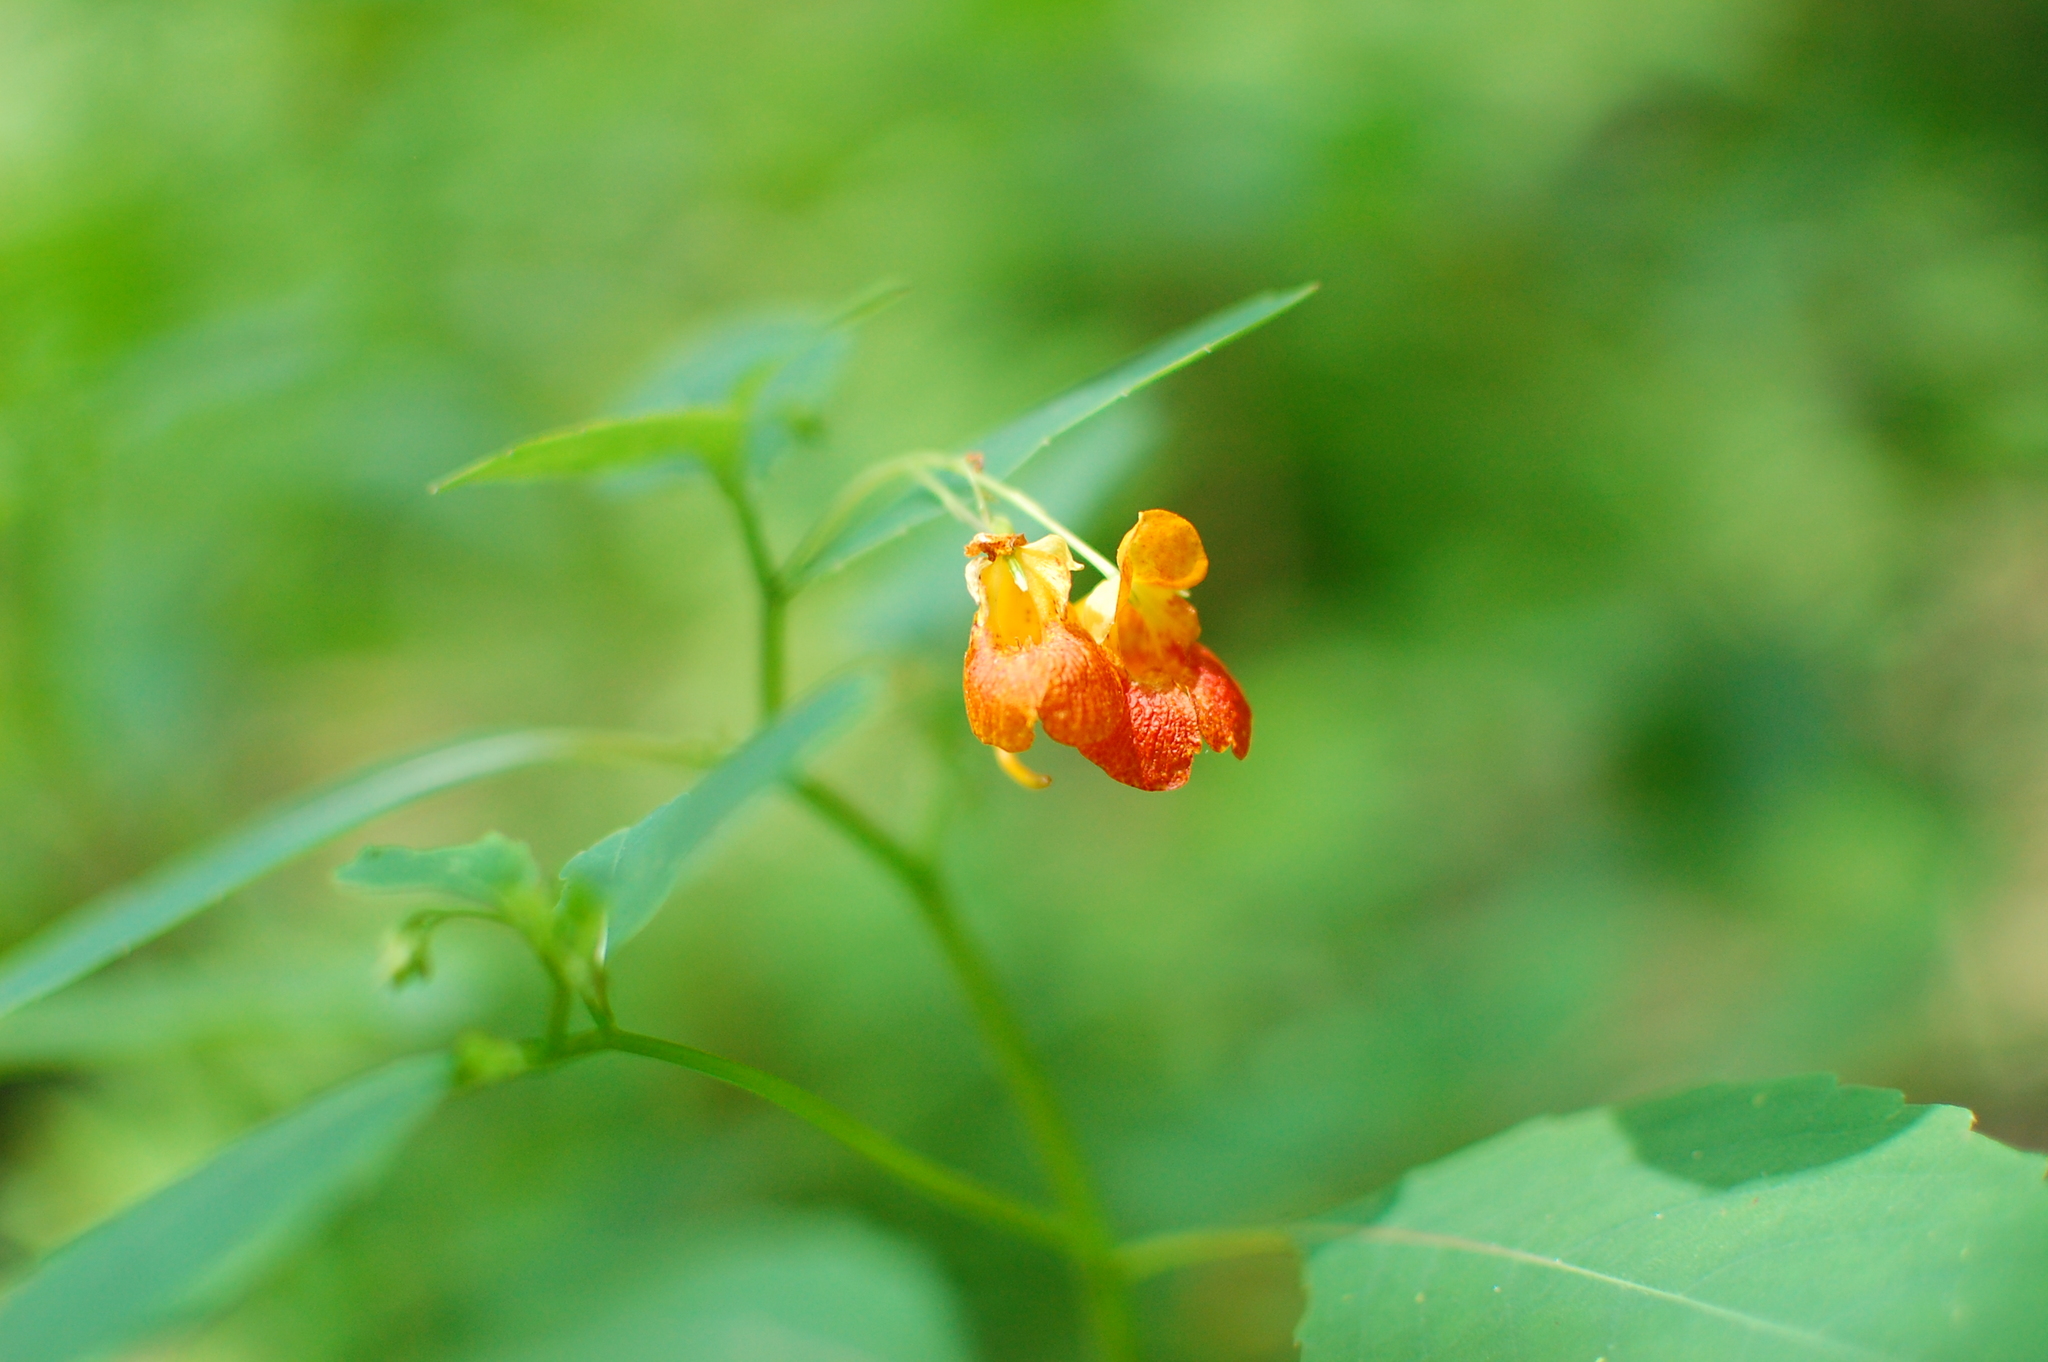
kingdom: Plantae
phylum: Tracheophyta
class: Magnoliopsida
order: Ericales
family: Balsaminaceae
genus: Impatiens
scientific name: Impatiens capensis
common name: Orange balsam
